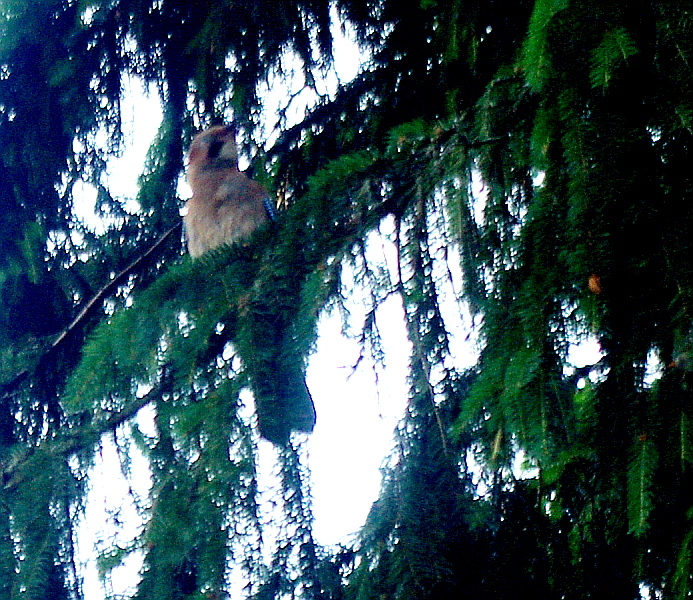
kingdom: Animalia
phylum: Chordata
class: Aves
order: Passeriformes
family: Corvidae
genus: Garrulus
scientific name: Garrulus glandarius
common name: Eurasian jay
